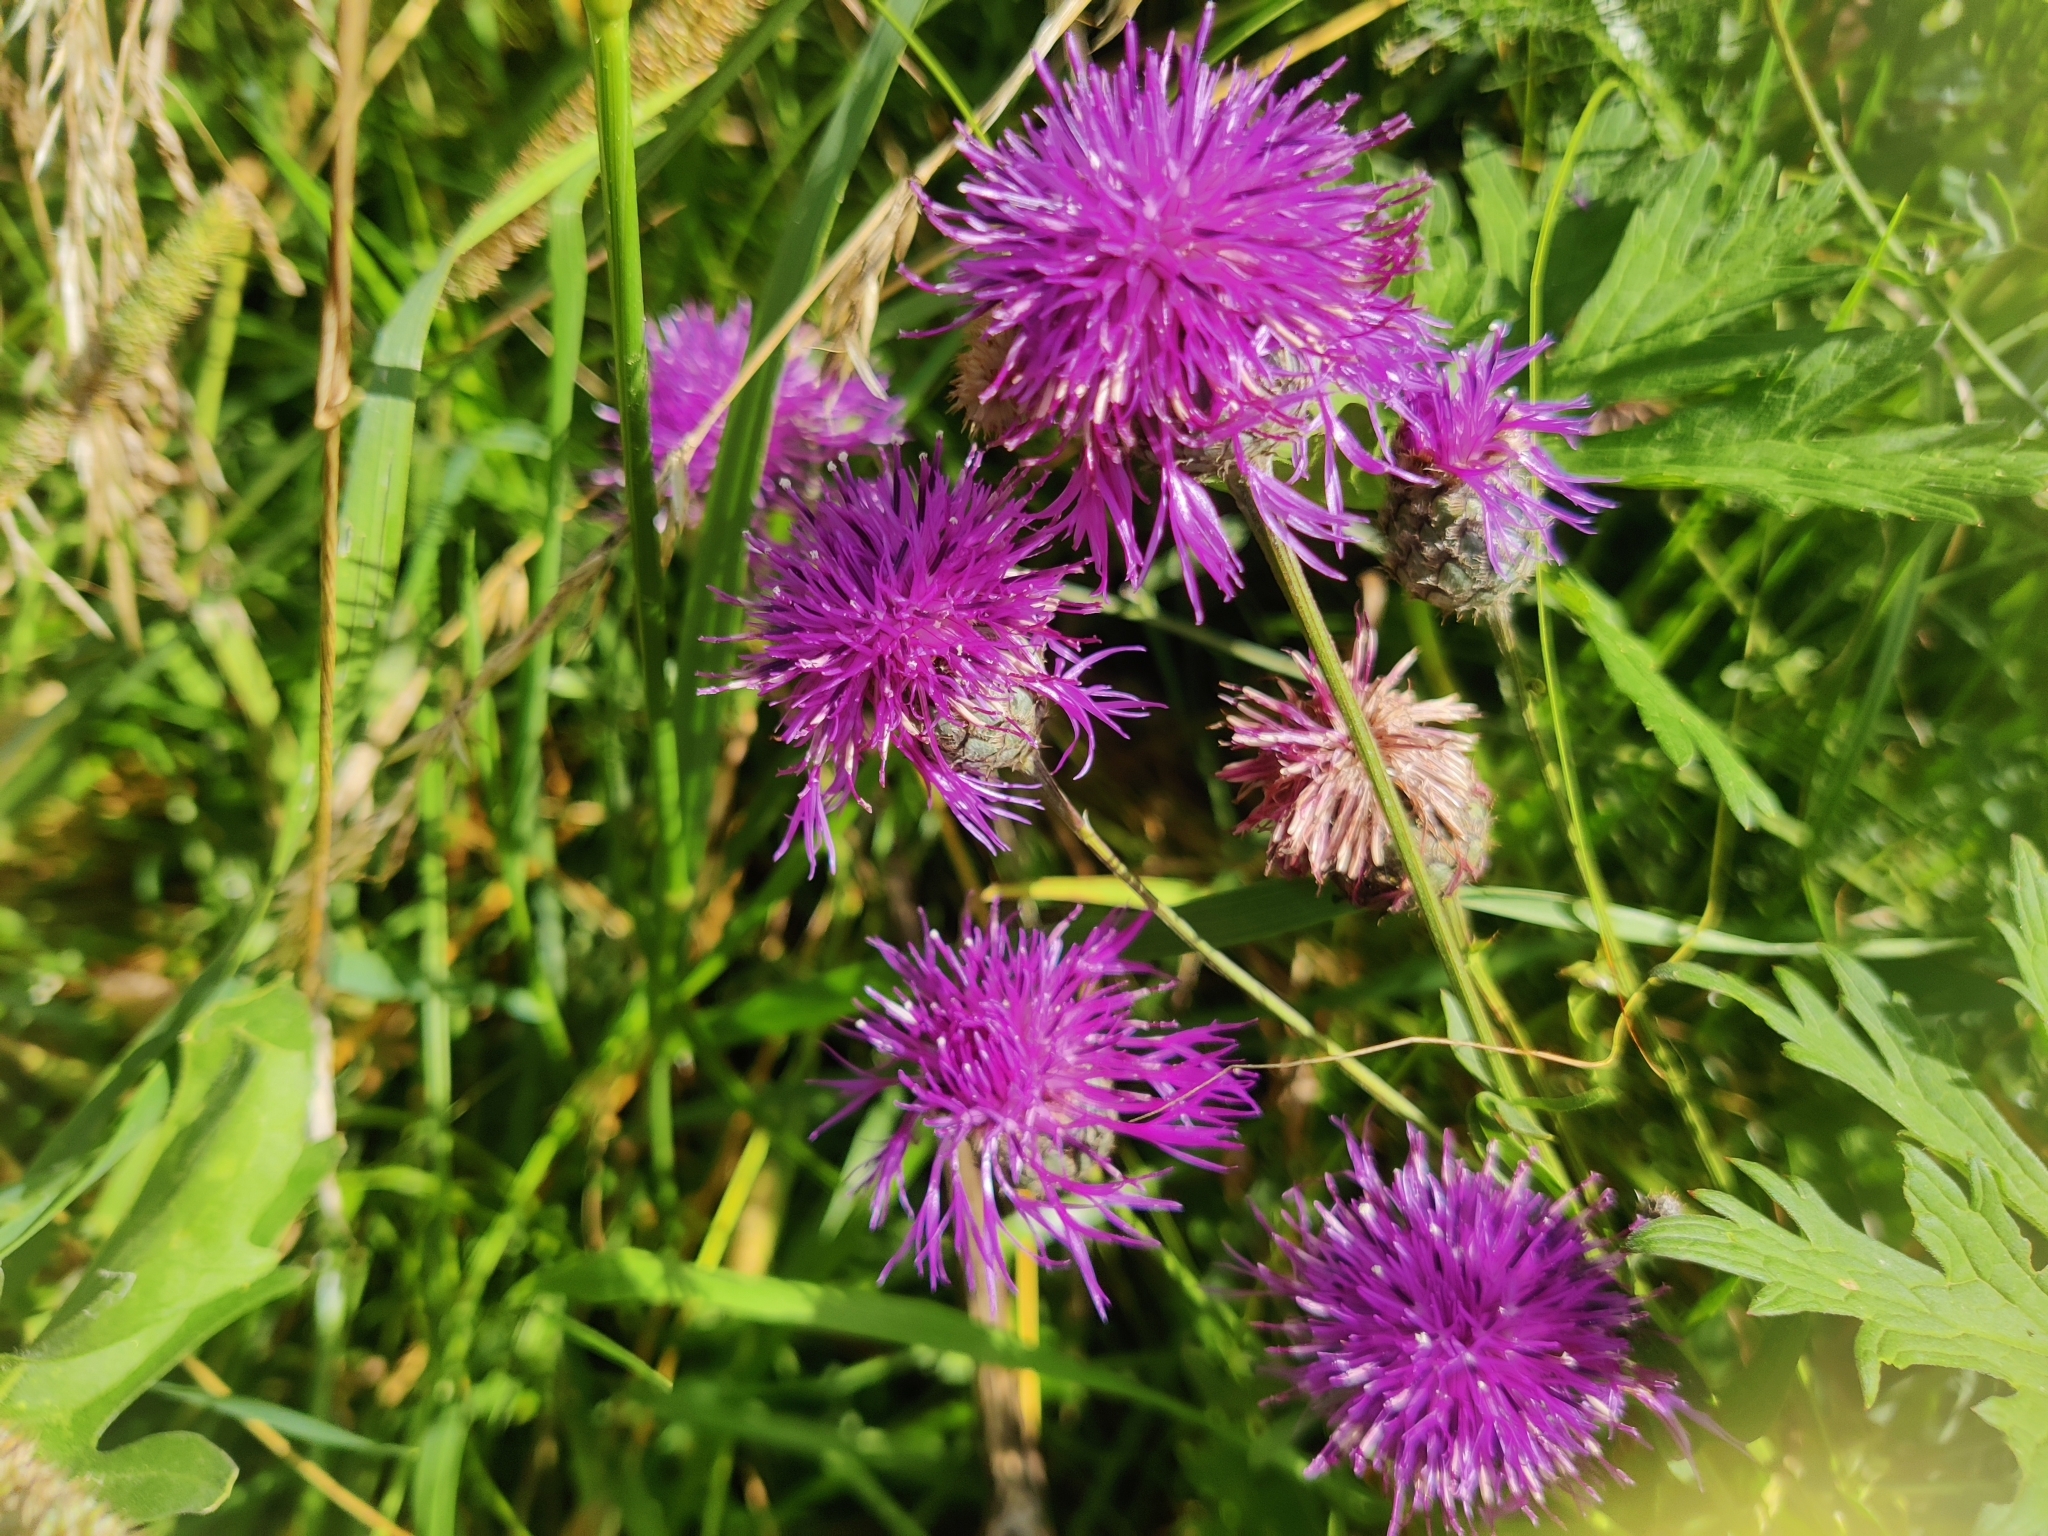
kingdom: Plantae
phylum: Tracheophyta
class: Magnoliopsida
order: Asterales
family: Asteraceae
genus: Centaurea
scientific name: Centaurea scabiosa
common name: Greater knapweed
